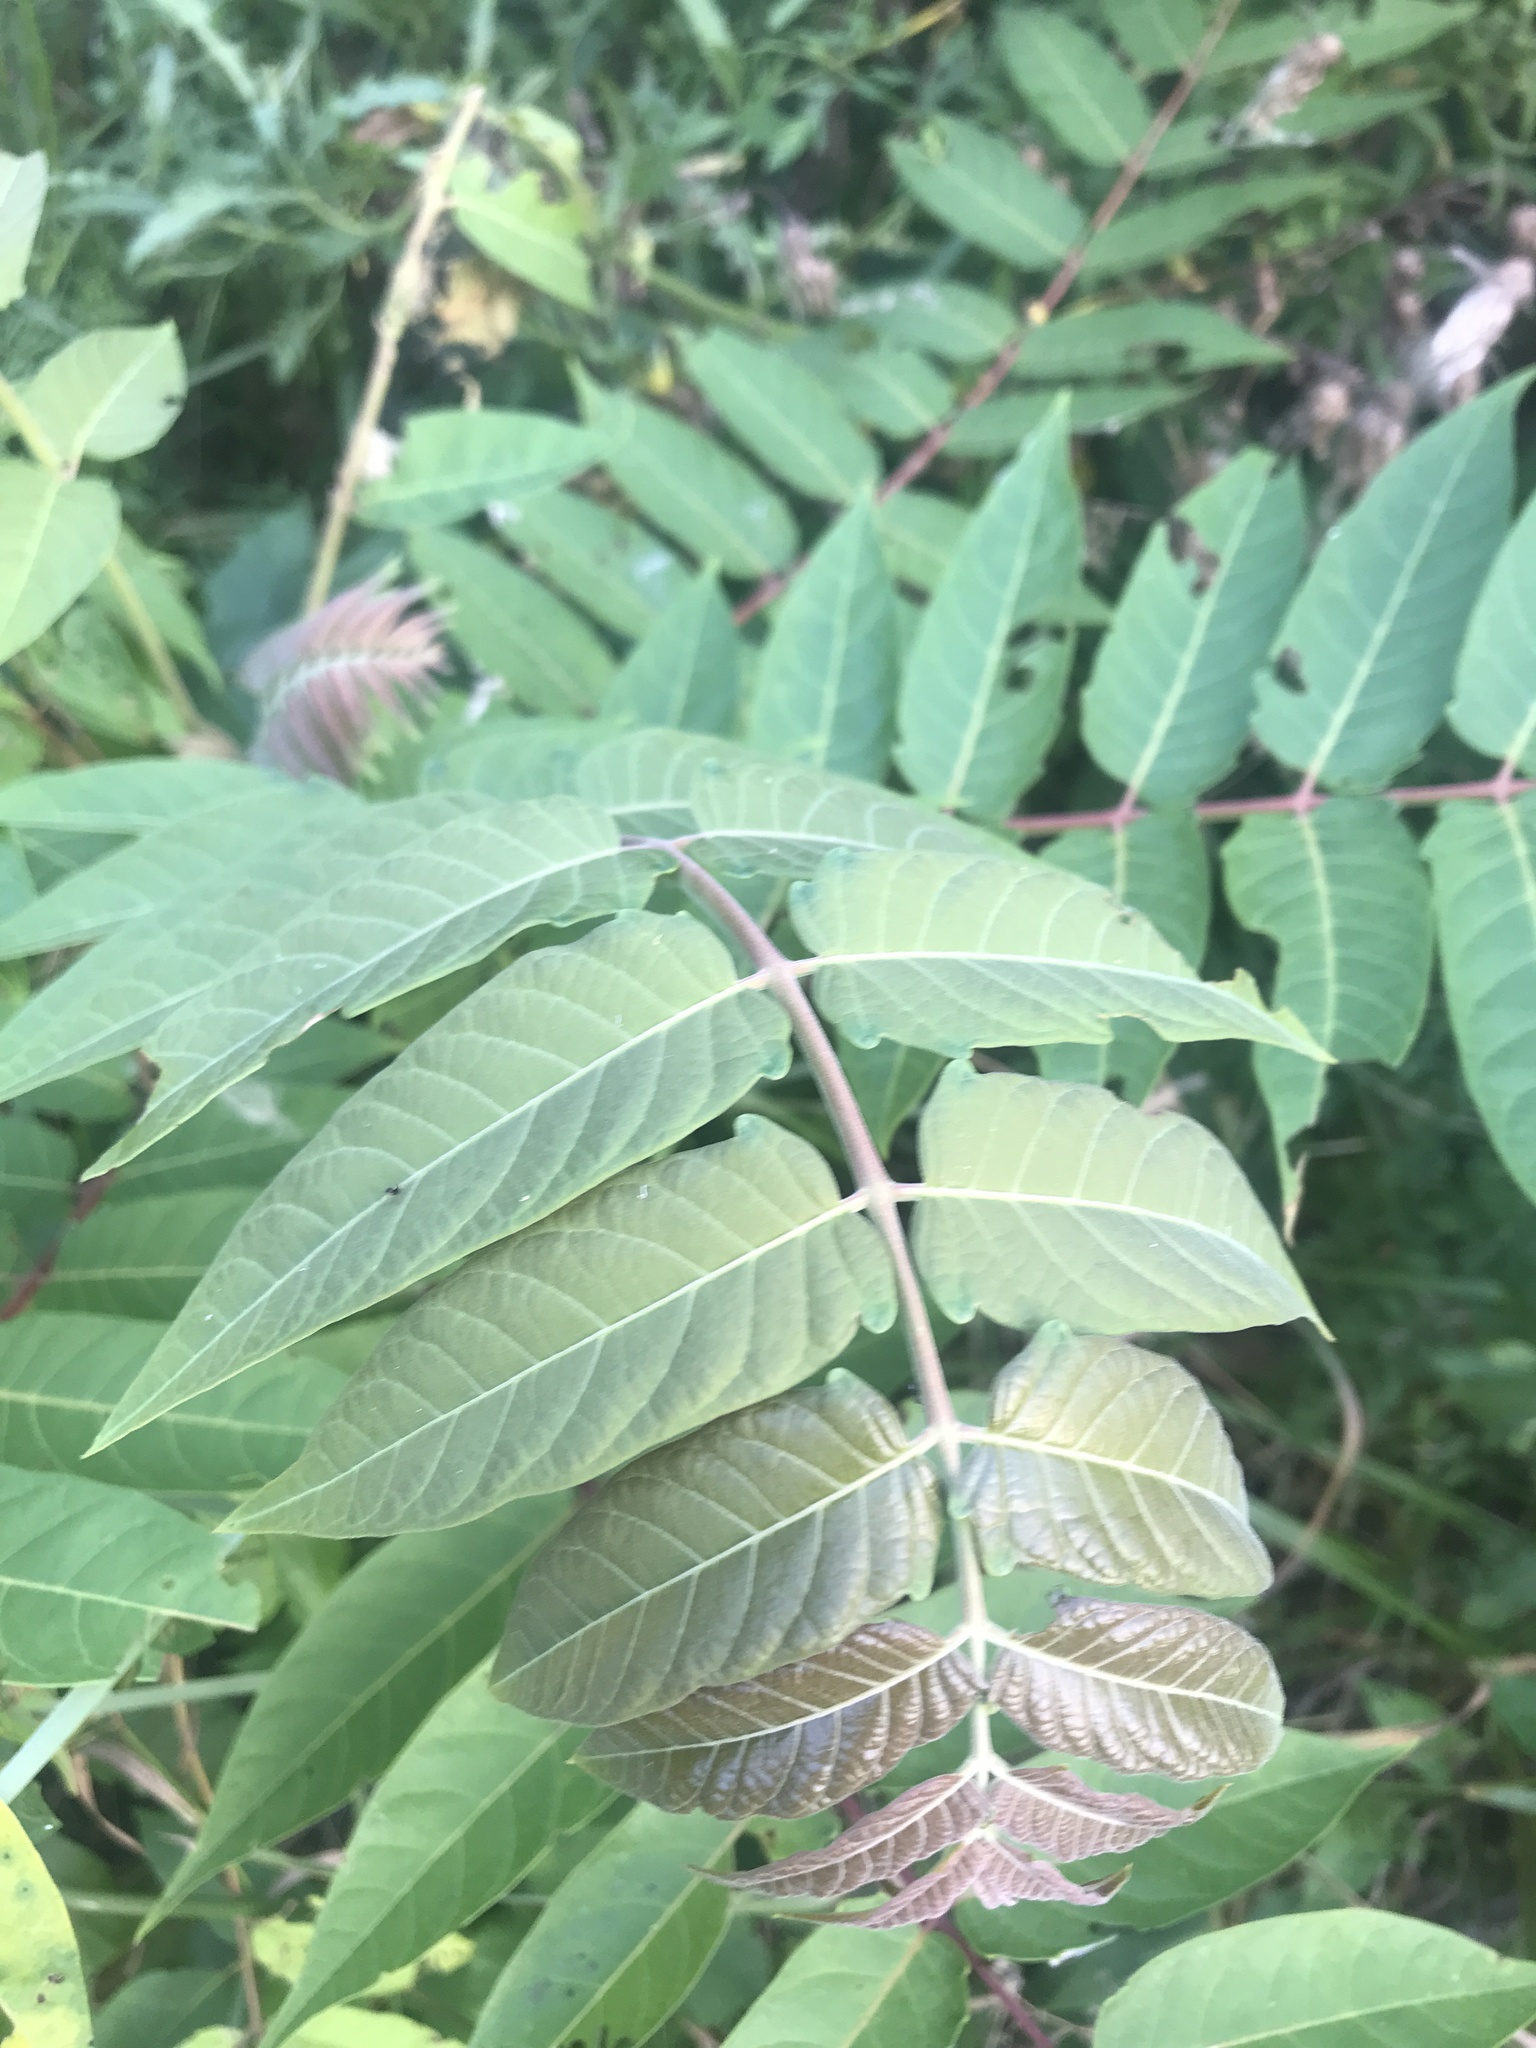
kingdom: Plantae
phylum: Tracheophyta
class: Magnoliopsida
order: Sapindales
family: Simaroubaceae
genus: Ailanthus
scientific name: Ailanthus altissima
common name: Tree-of-heaven
